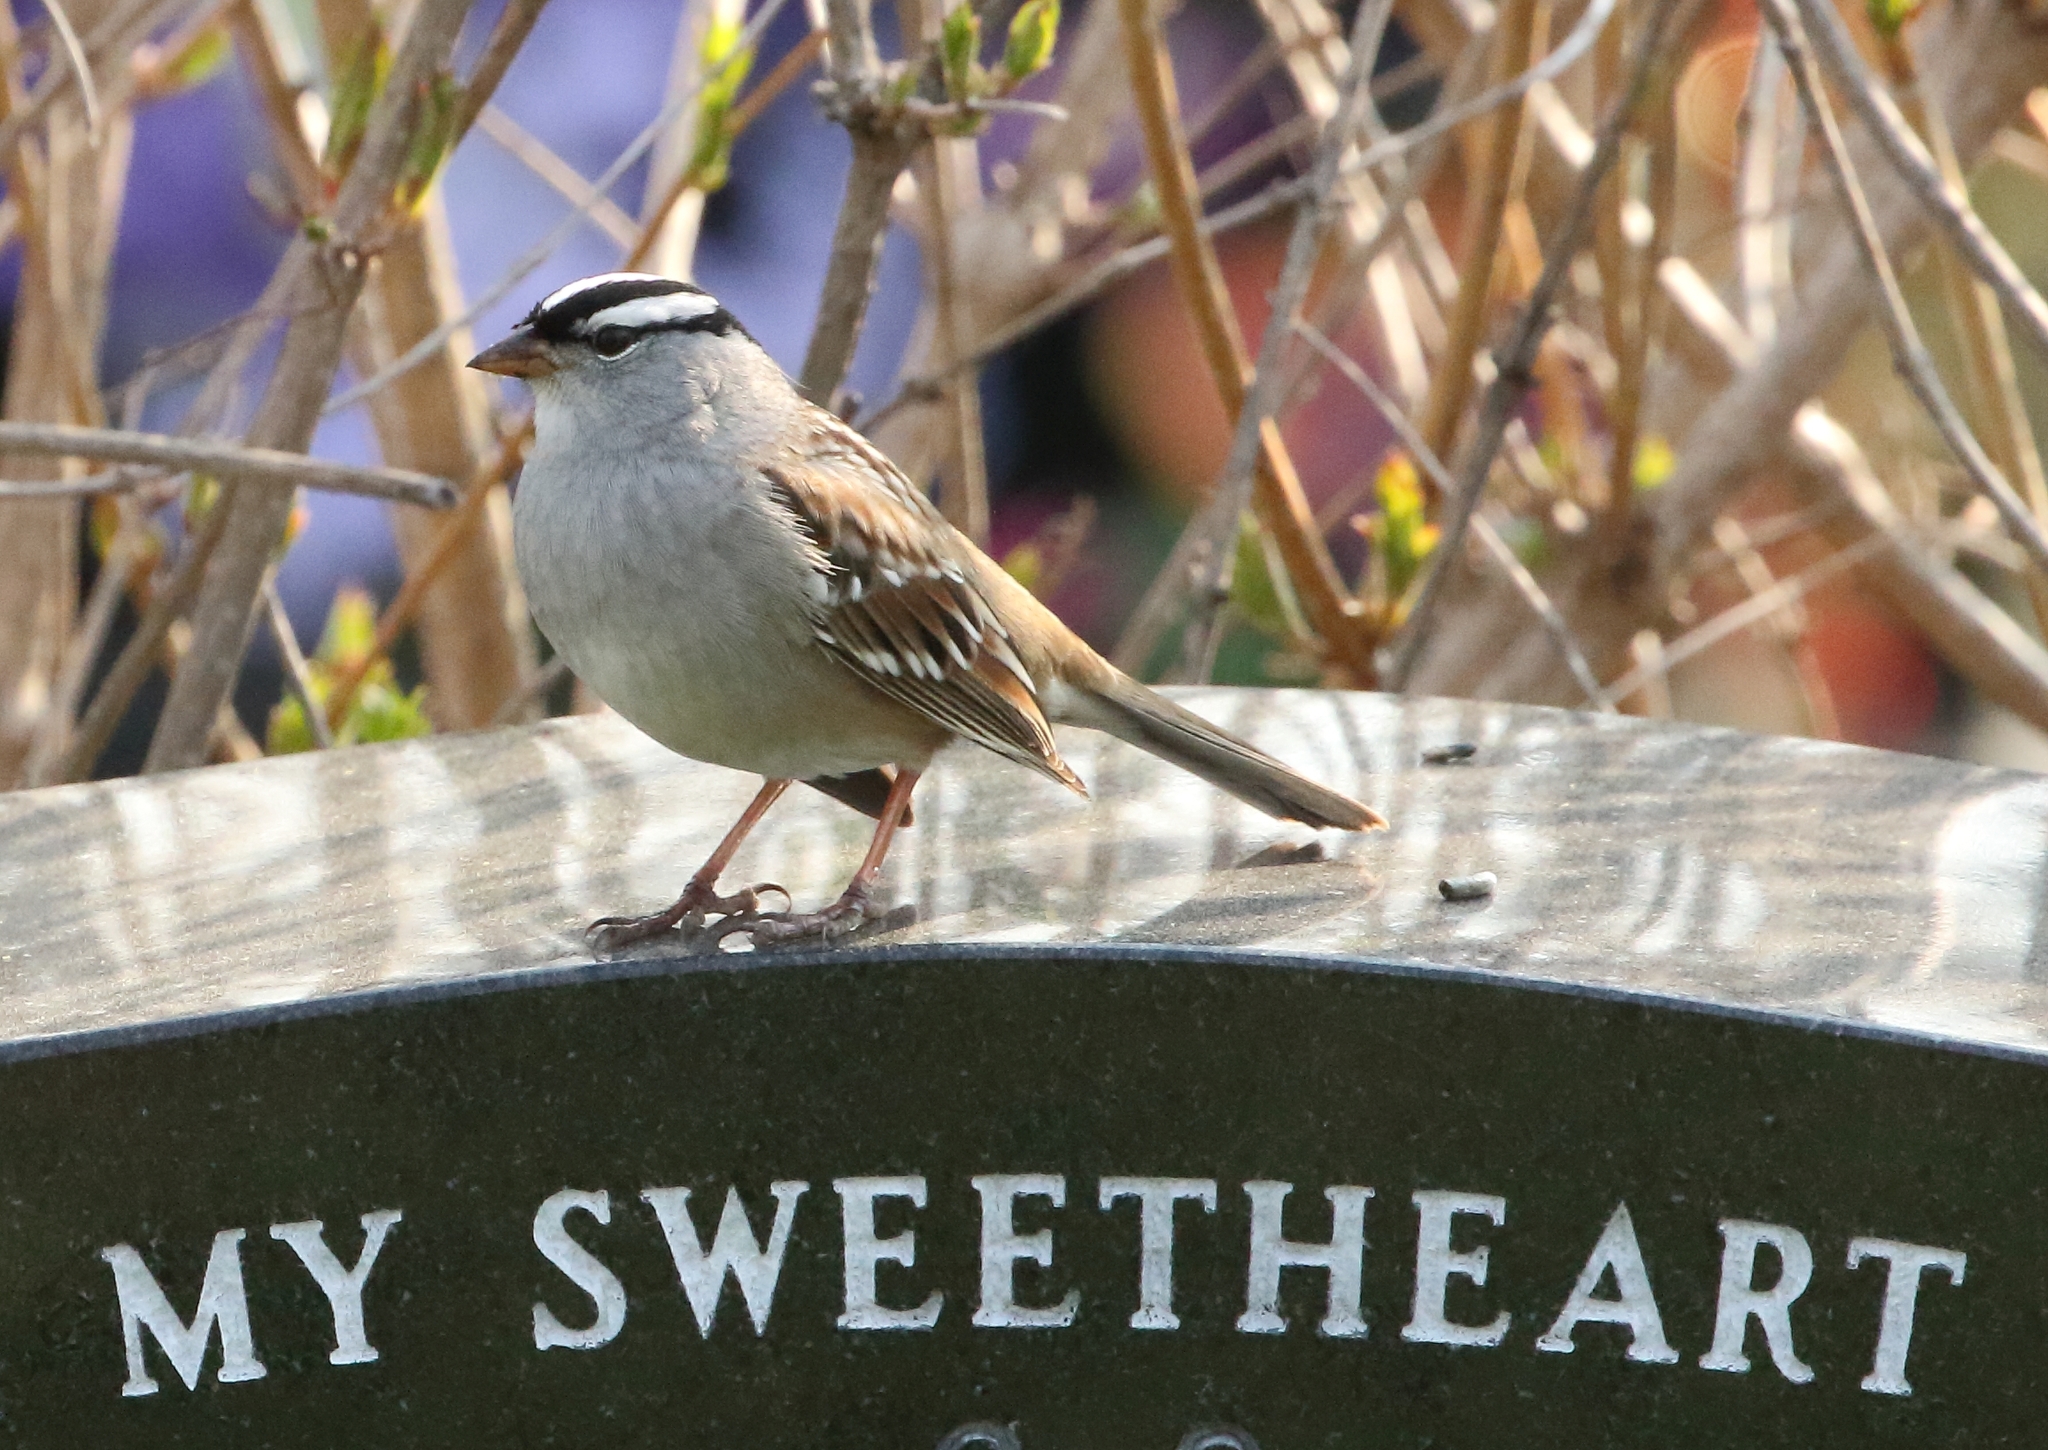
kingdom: Animalia
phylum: Chordata
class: Aves
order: Passeriformes
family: Passerellidae
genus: Zonotrichia
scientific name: Zonotrichia leucophrys
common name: White-crowned sparrow
